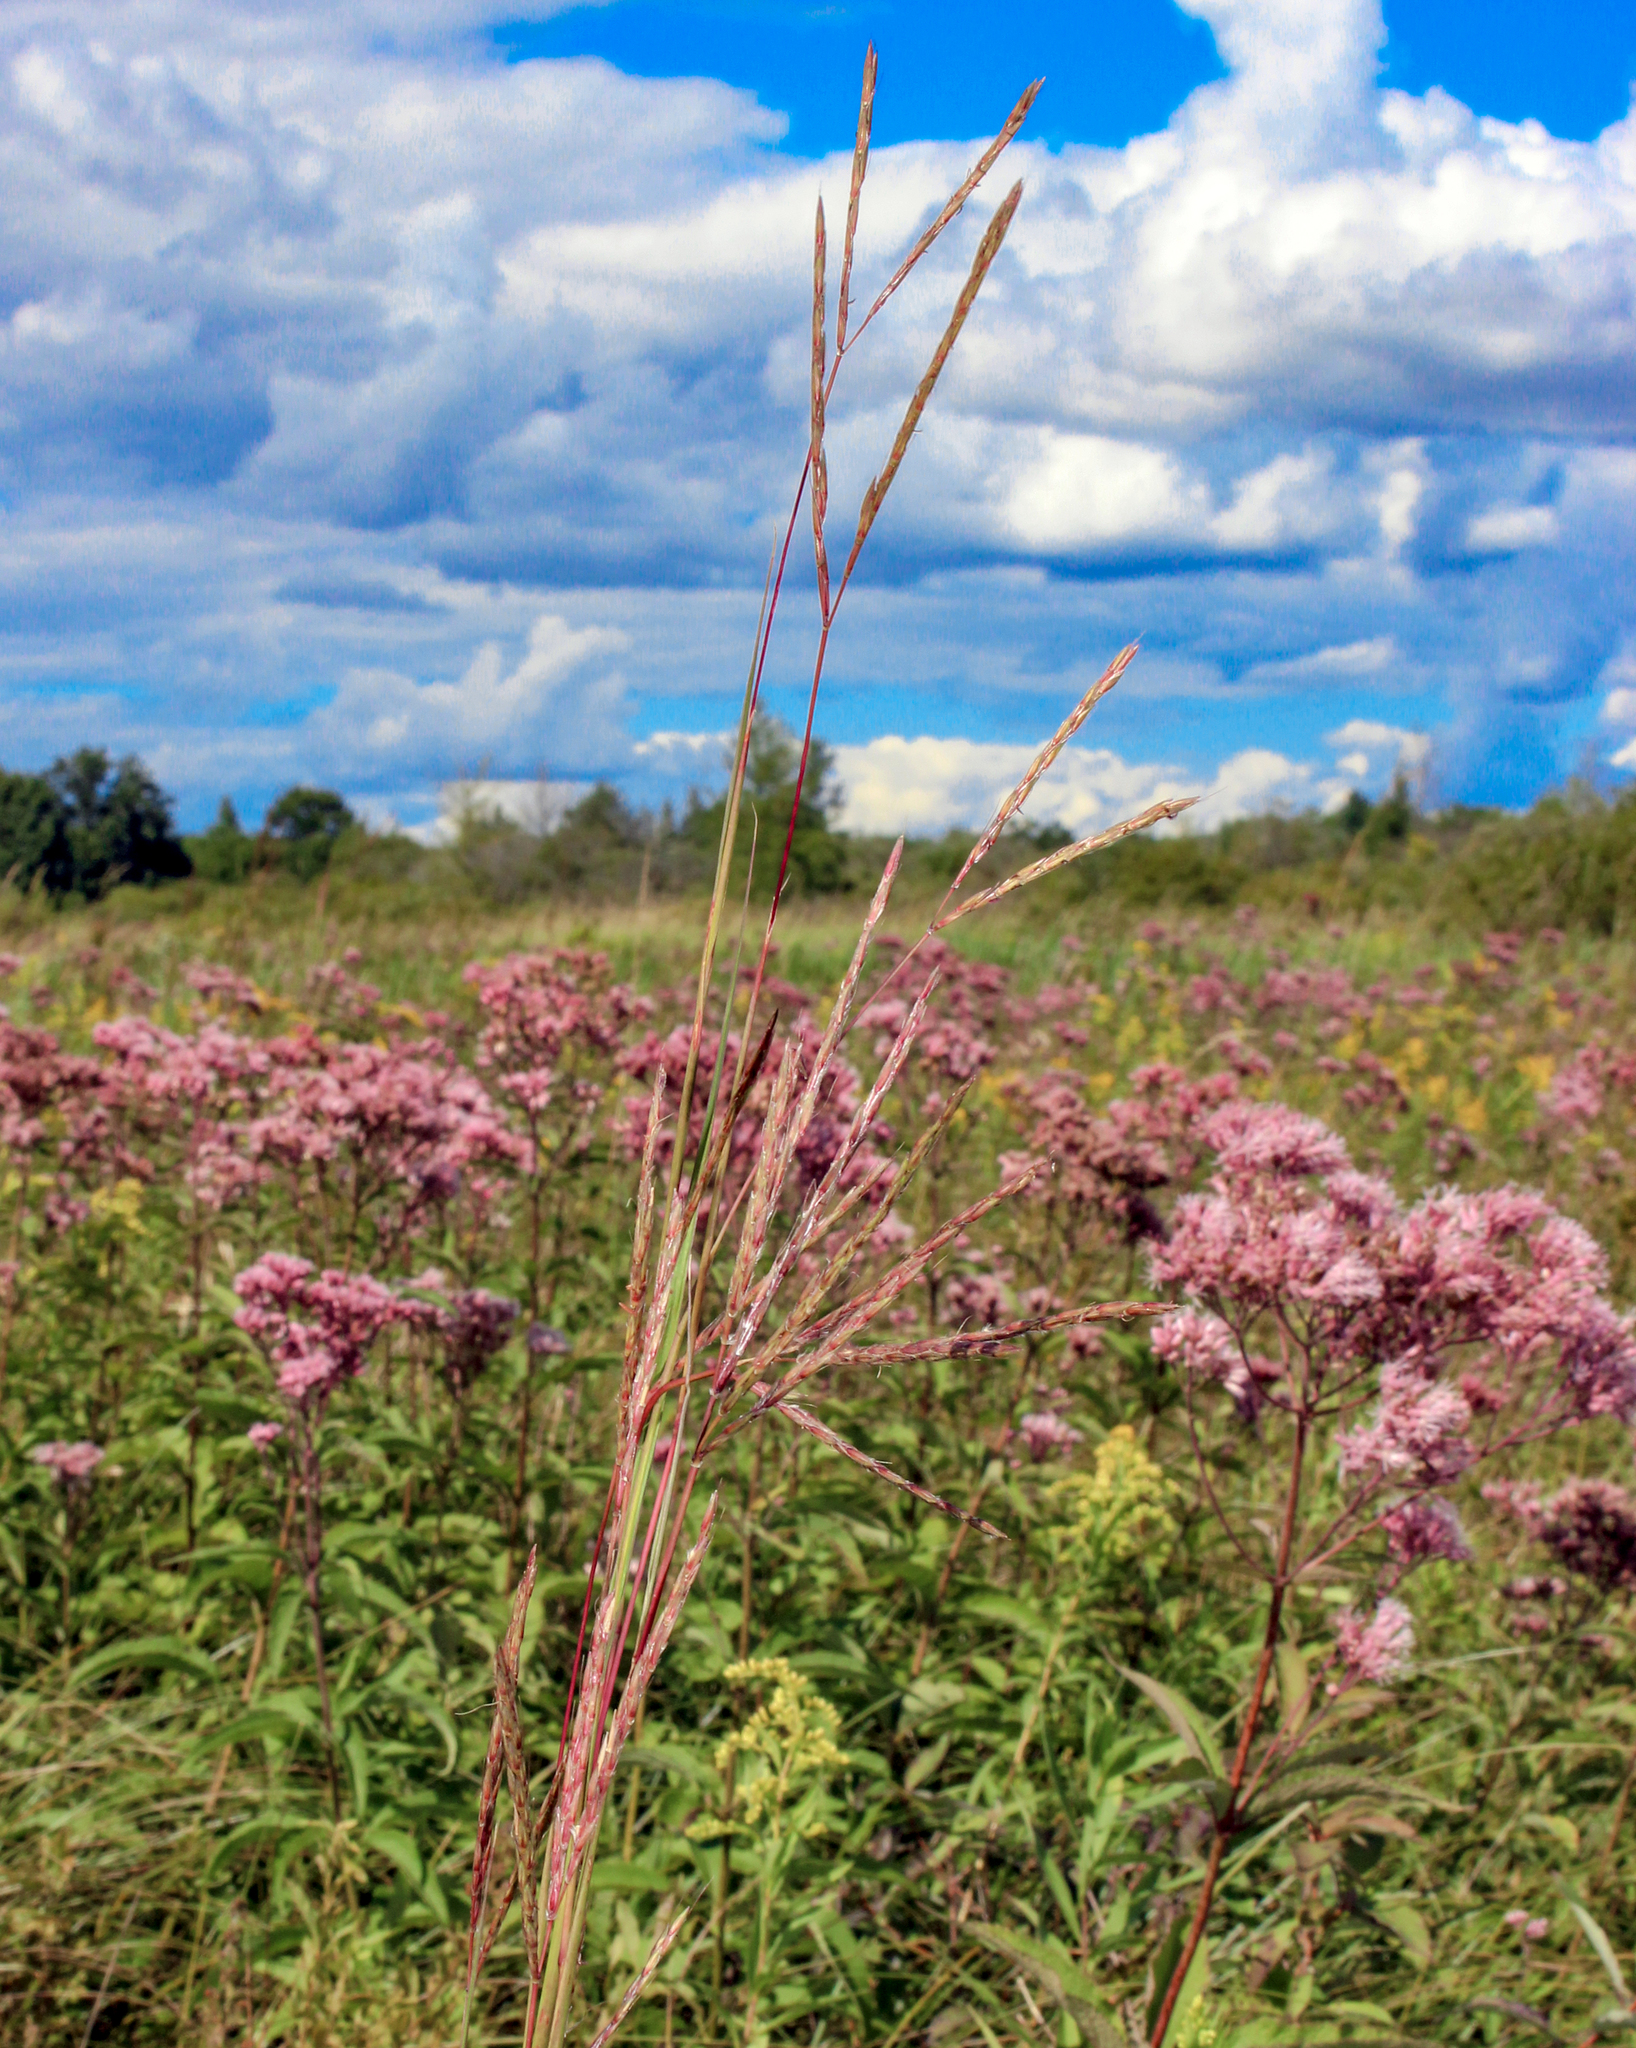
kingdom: Plantae
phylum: Tracheophyta
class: Liliopsida
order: Poales
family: Poaceae
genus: Andropogon
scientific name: Andropogon gerardi
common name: Big bluestem
